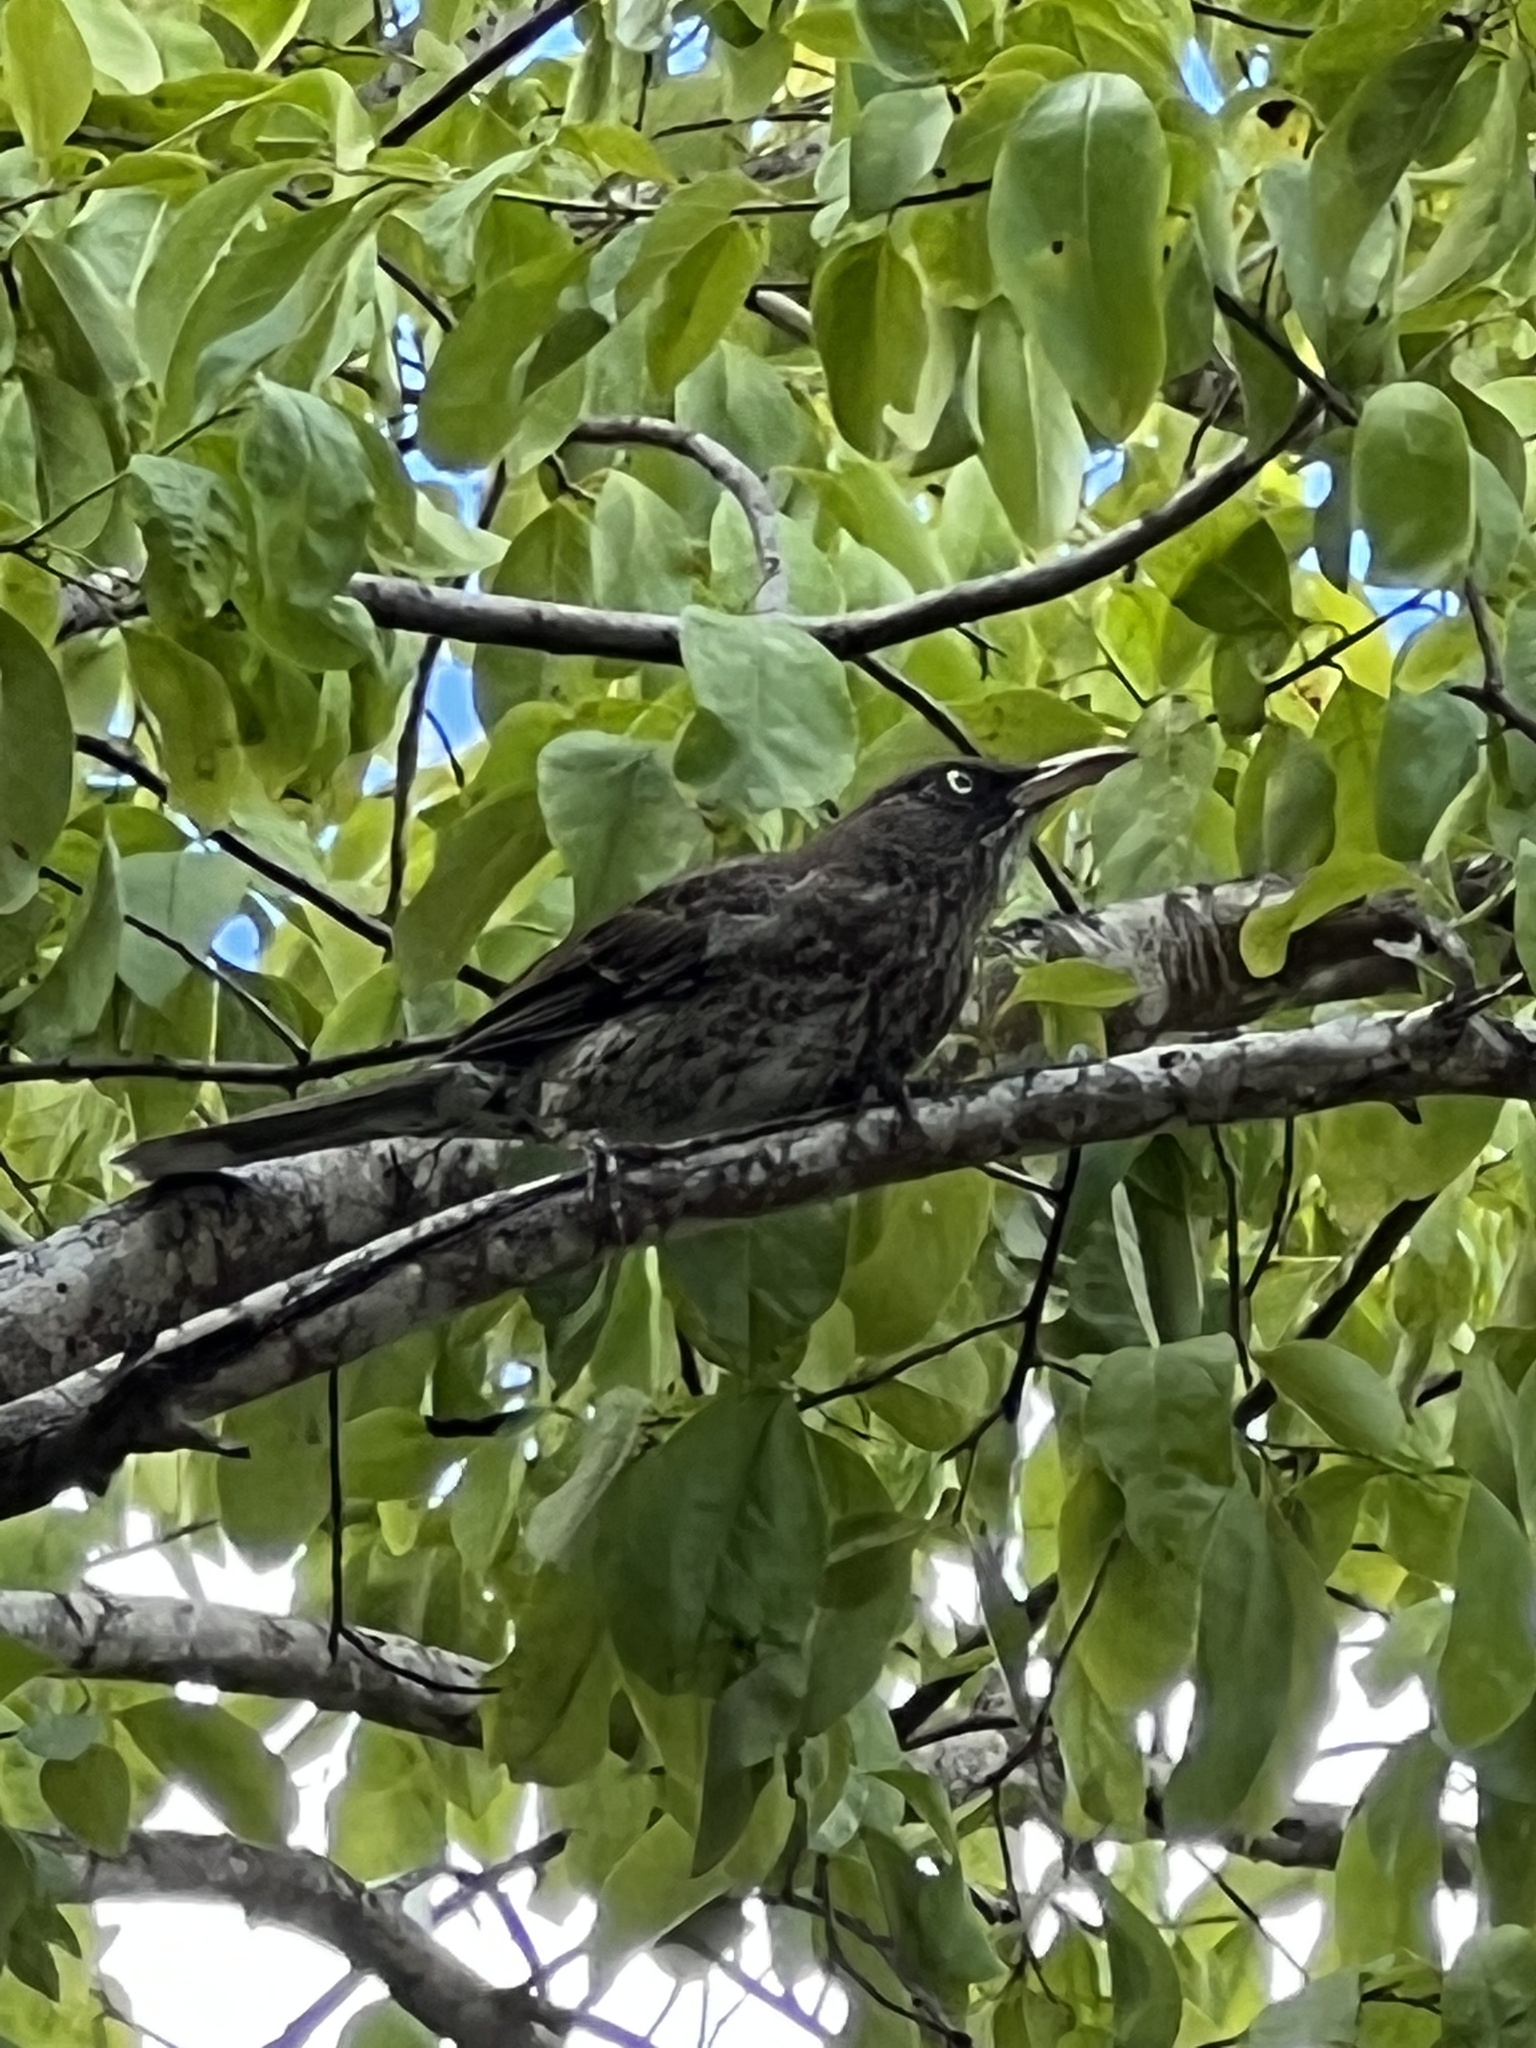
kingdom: Animalia
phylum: Chordata
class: Aves
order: Passeriformes
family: Mimidae
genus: Margarops
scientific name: Margarops fuscatus
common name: Pearly-eyed thrasher
